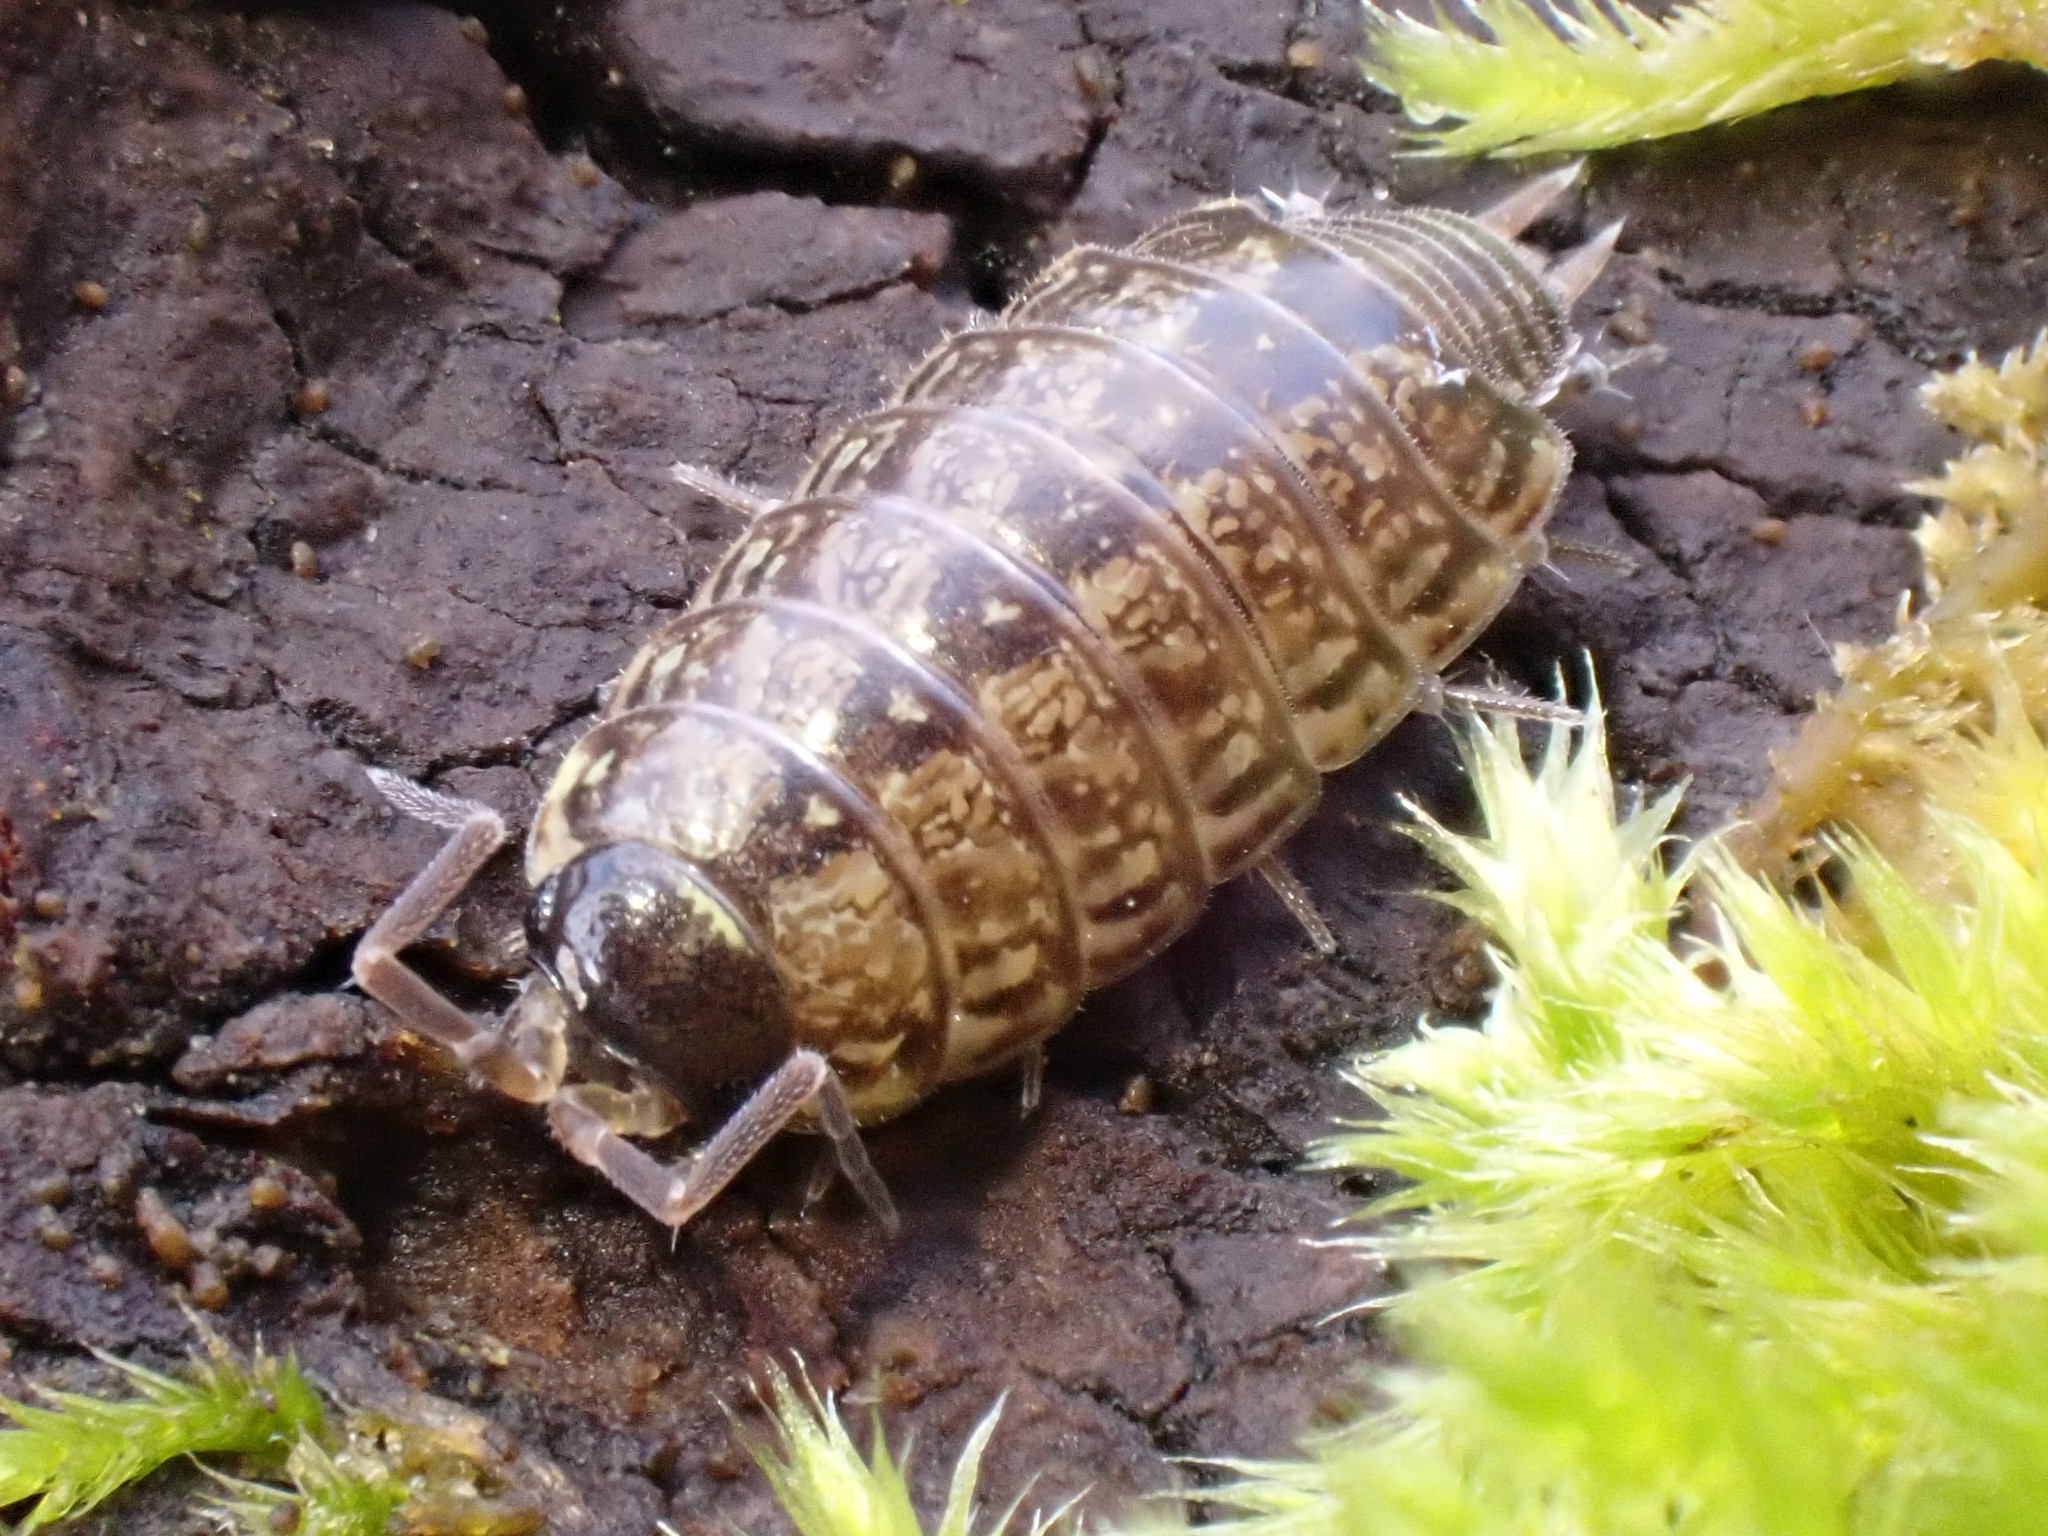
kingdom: Animalia
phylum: Arthropoda
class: Malacostraca
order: Isopoda
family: Philosciidae
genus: Philoscia
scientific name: Philoscia muscorum
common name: Common striped woodlouse
